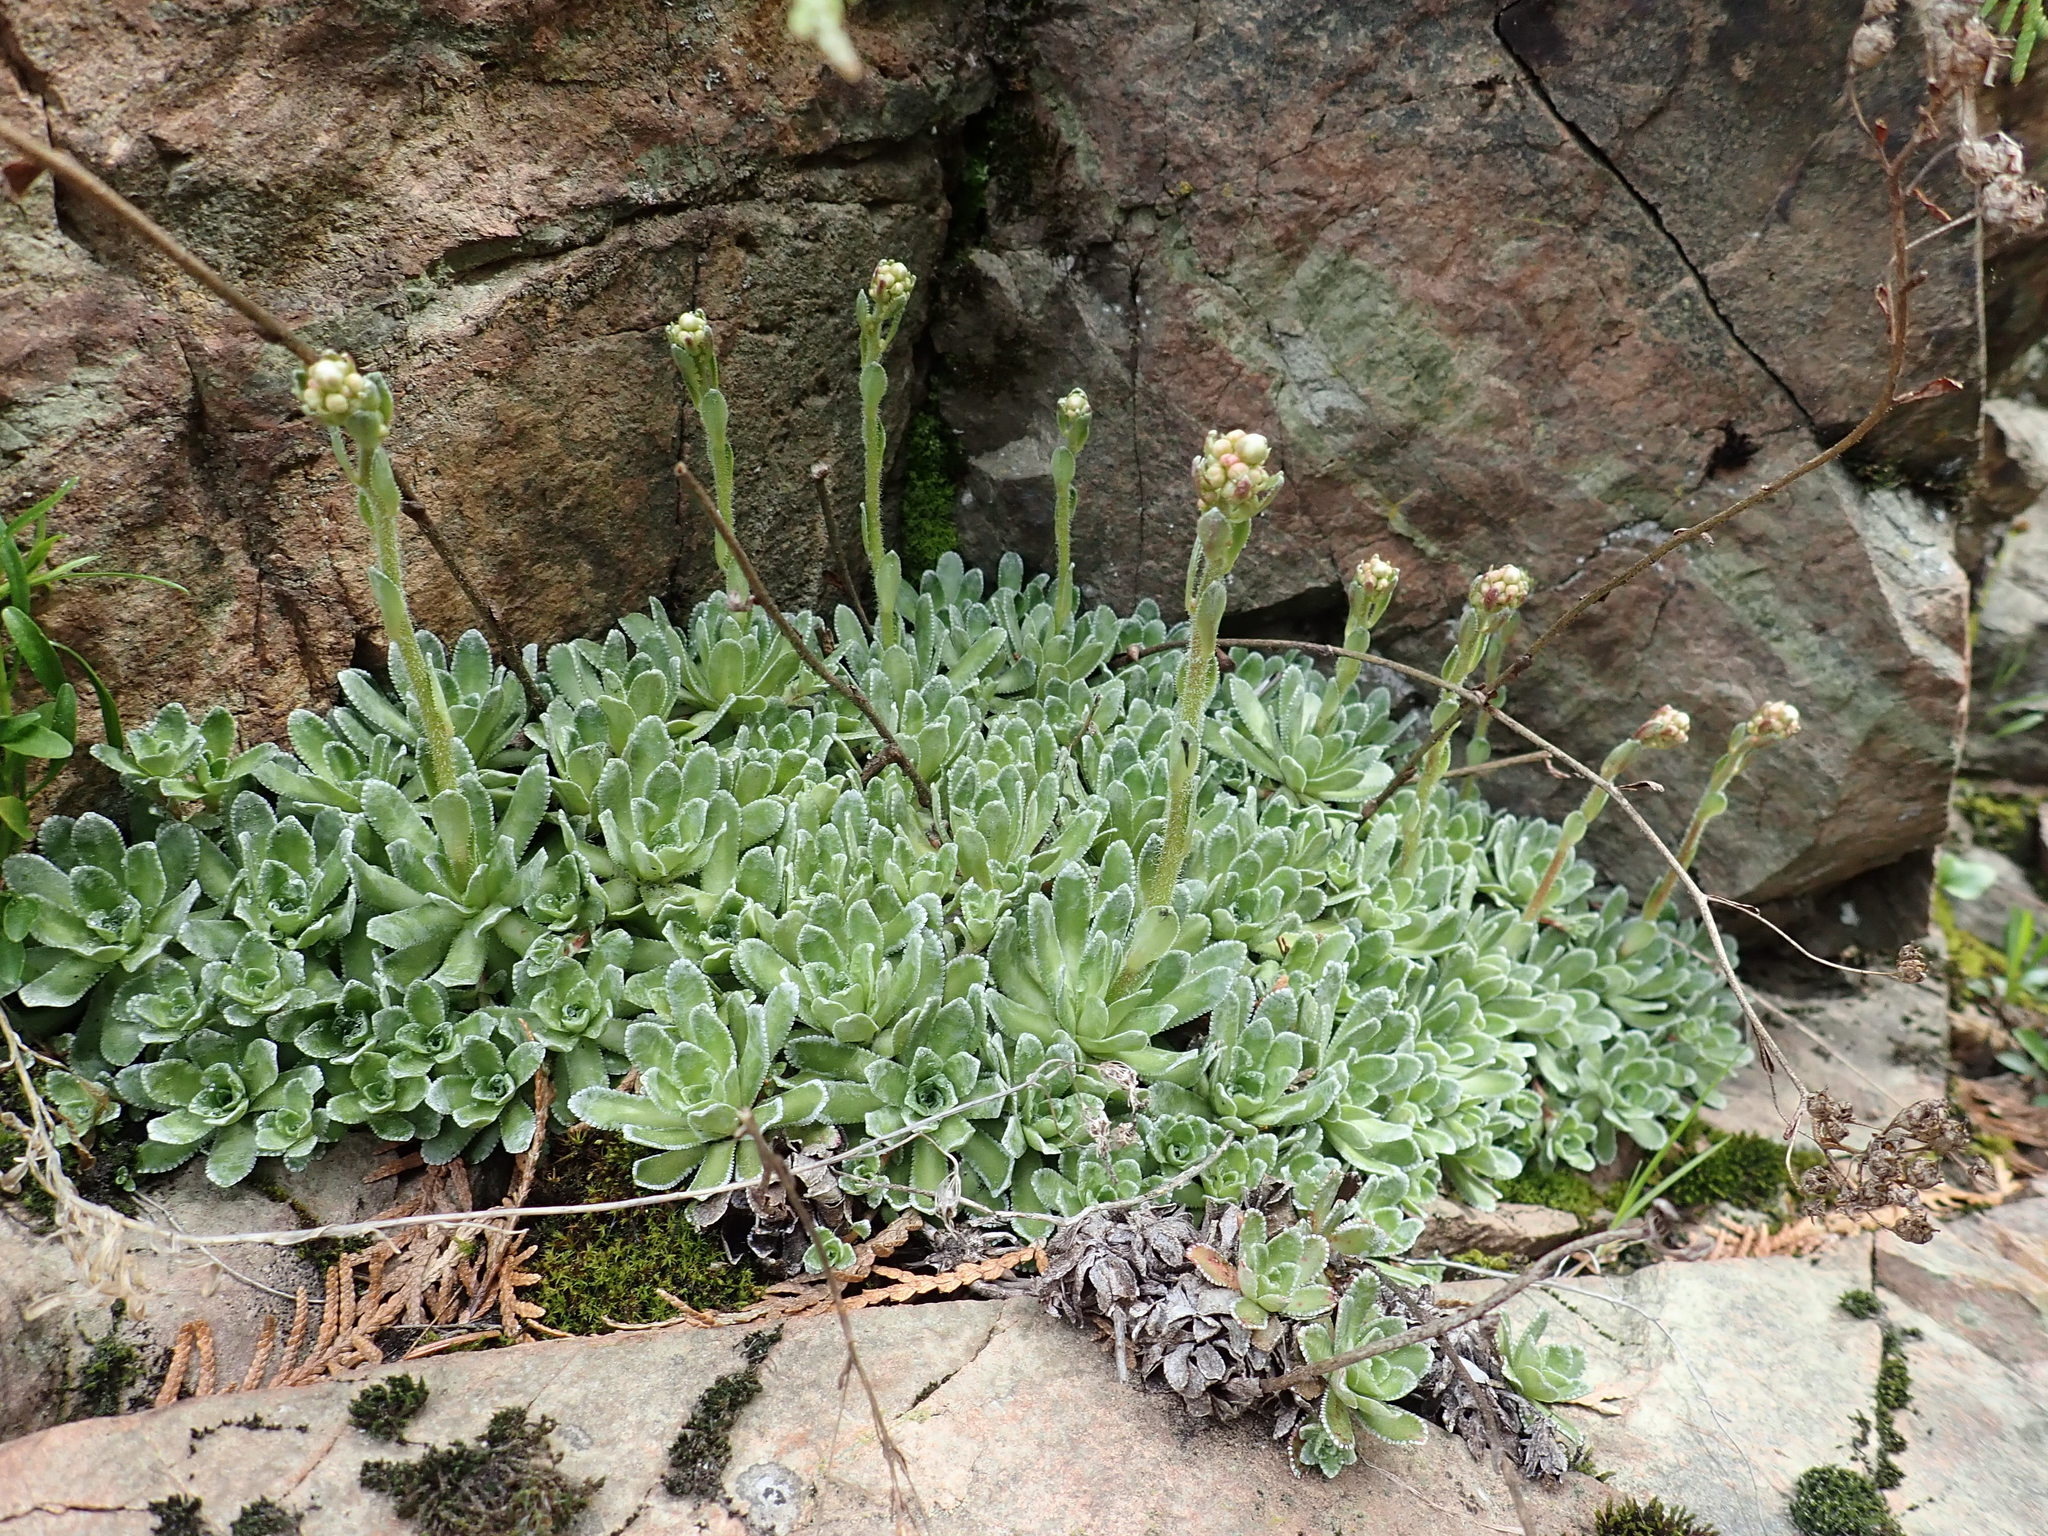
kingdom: Plantae
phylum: Tracheophyta
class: Magnoliopsida
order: Saxifragales
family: Saxifragaceae
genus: Saxifraga
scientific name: Saxifraga paniculata
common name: Livelong saxifrage
